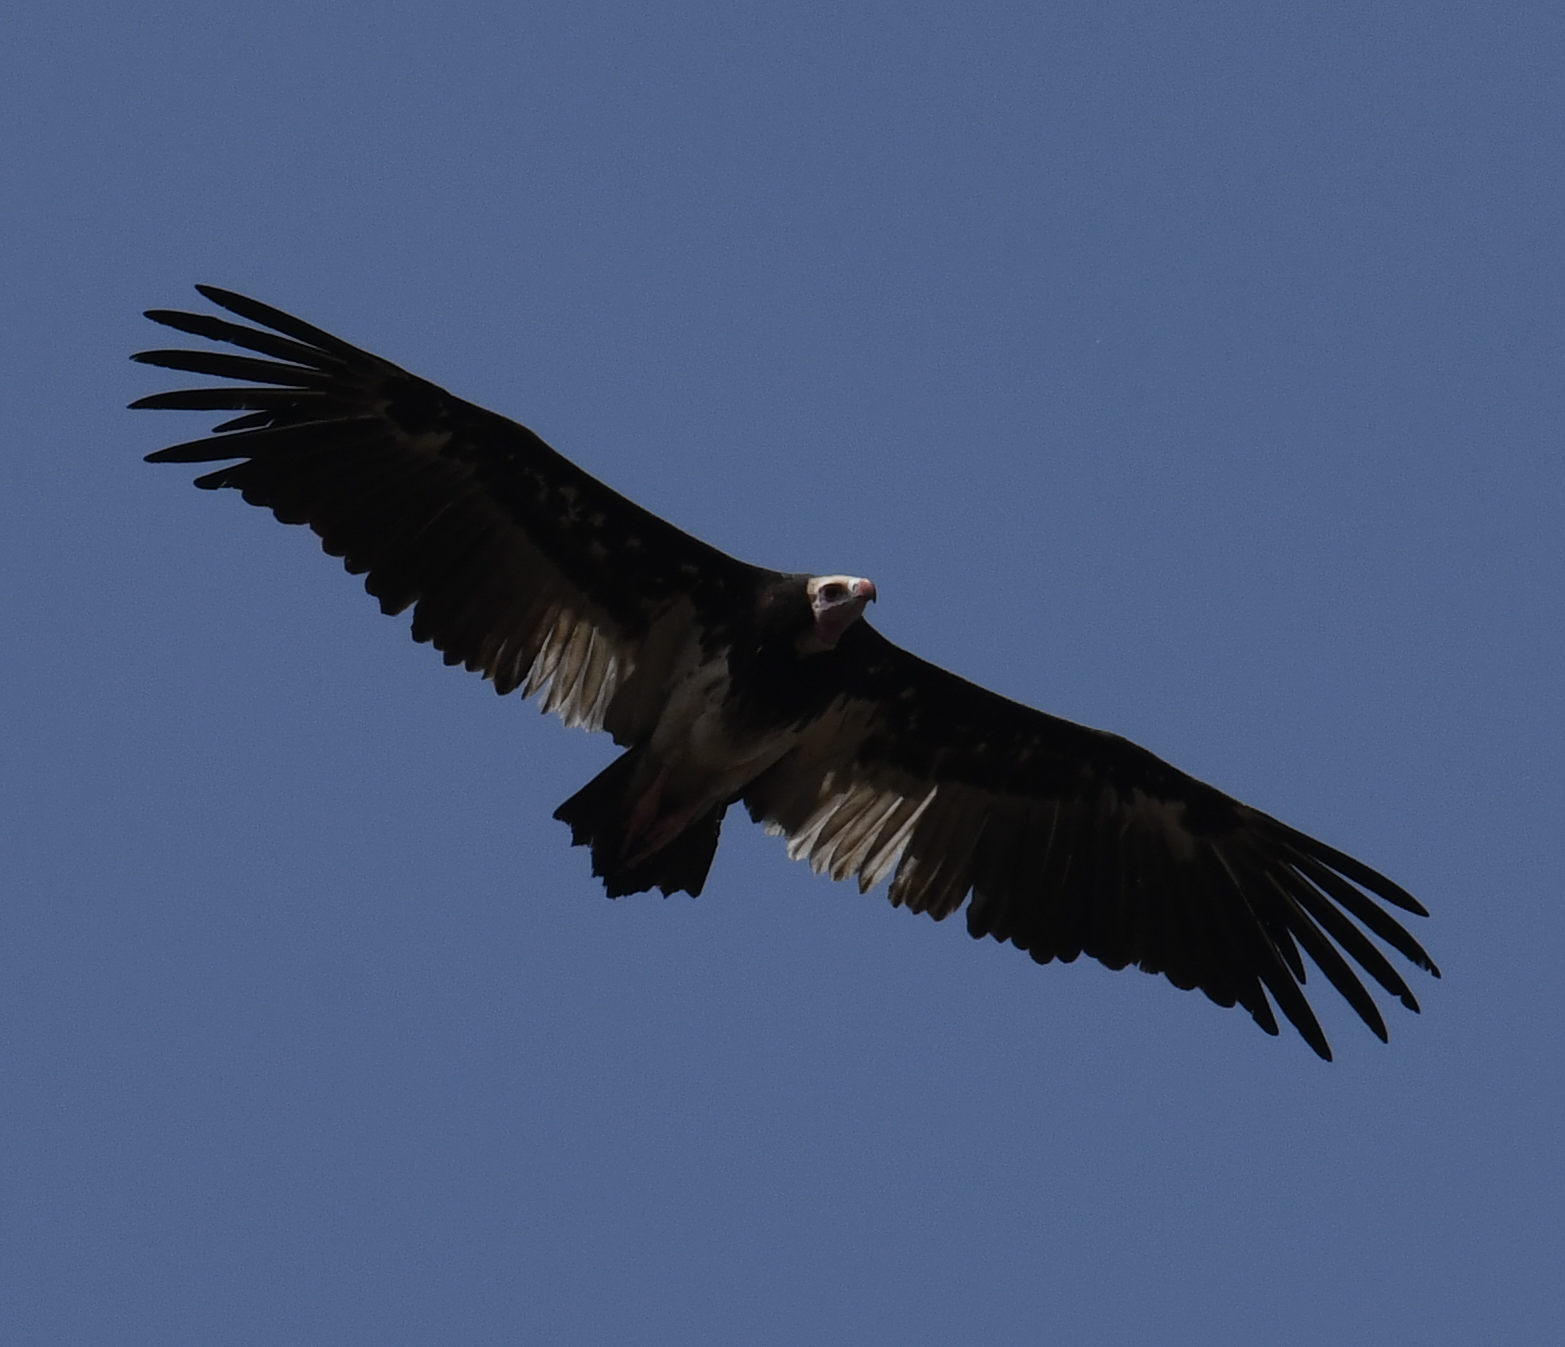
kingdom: Animalia
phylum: Chordata
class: Aves
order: Accipitriformes
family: Accipitridae
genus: Trigonoceps
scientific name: Trigonoceps occipitalis
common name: White-headed vulture
